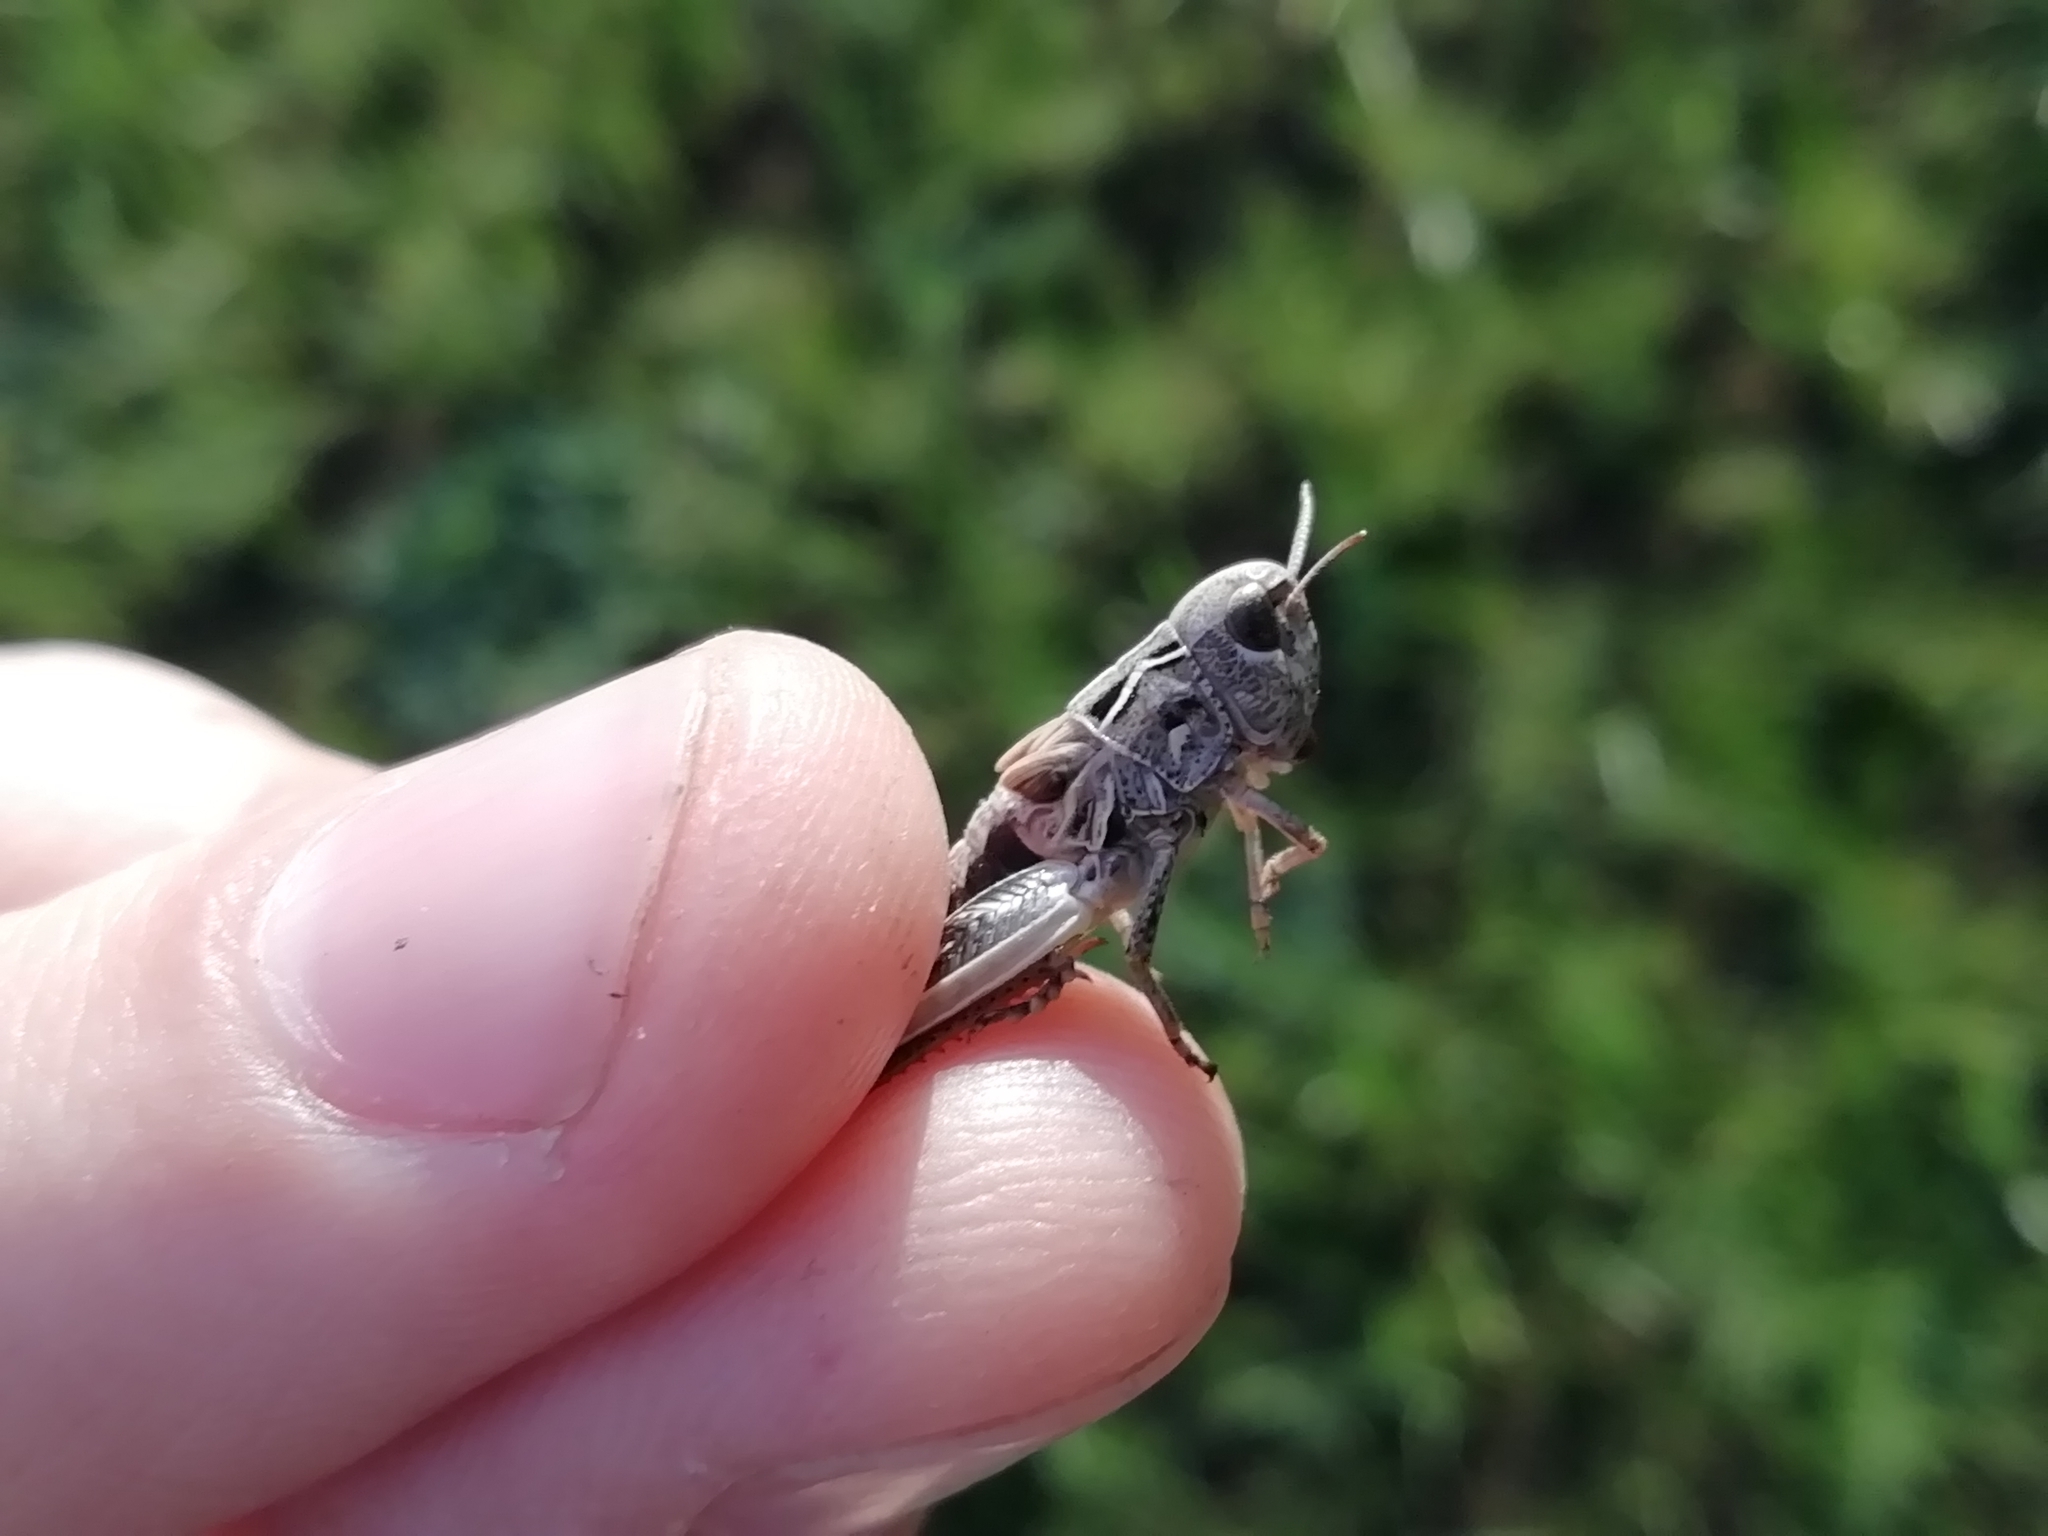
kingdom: Animalia
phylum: Arthropoda
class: Insecta
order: Orthoptera
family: Acrididae
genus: Arcyptera
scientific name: Arcyptera microptera
